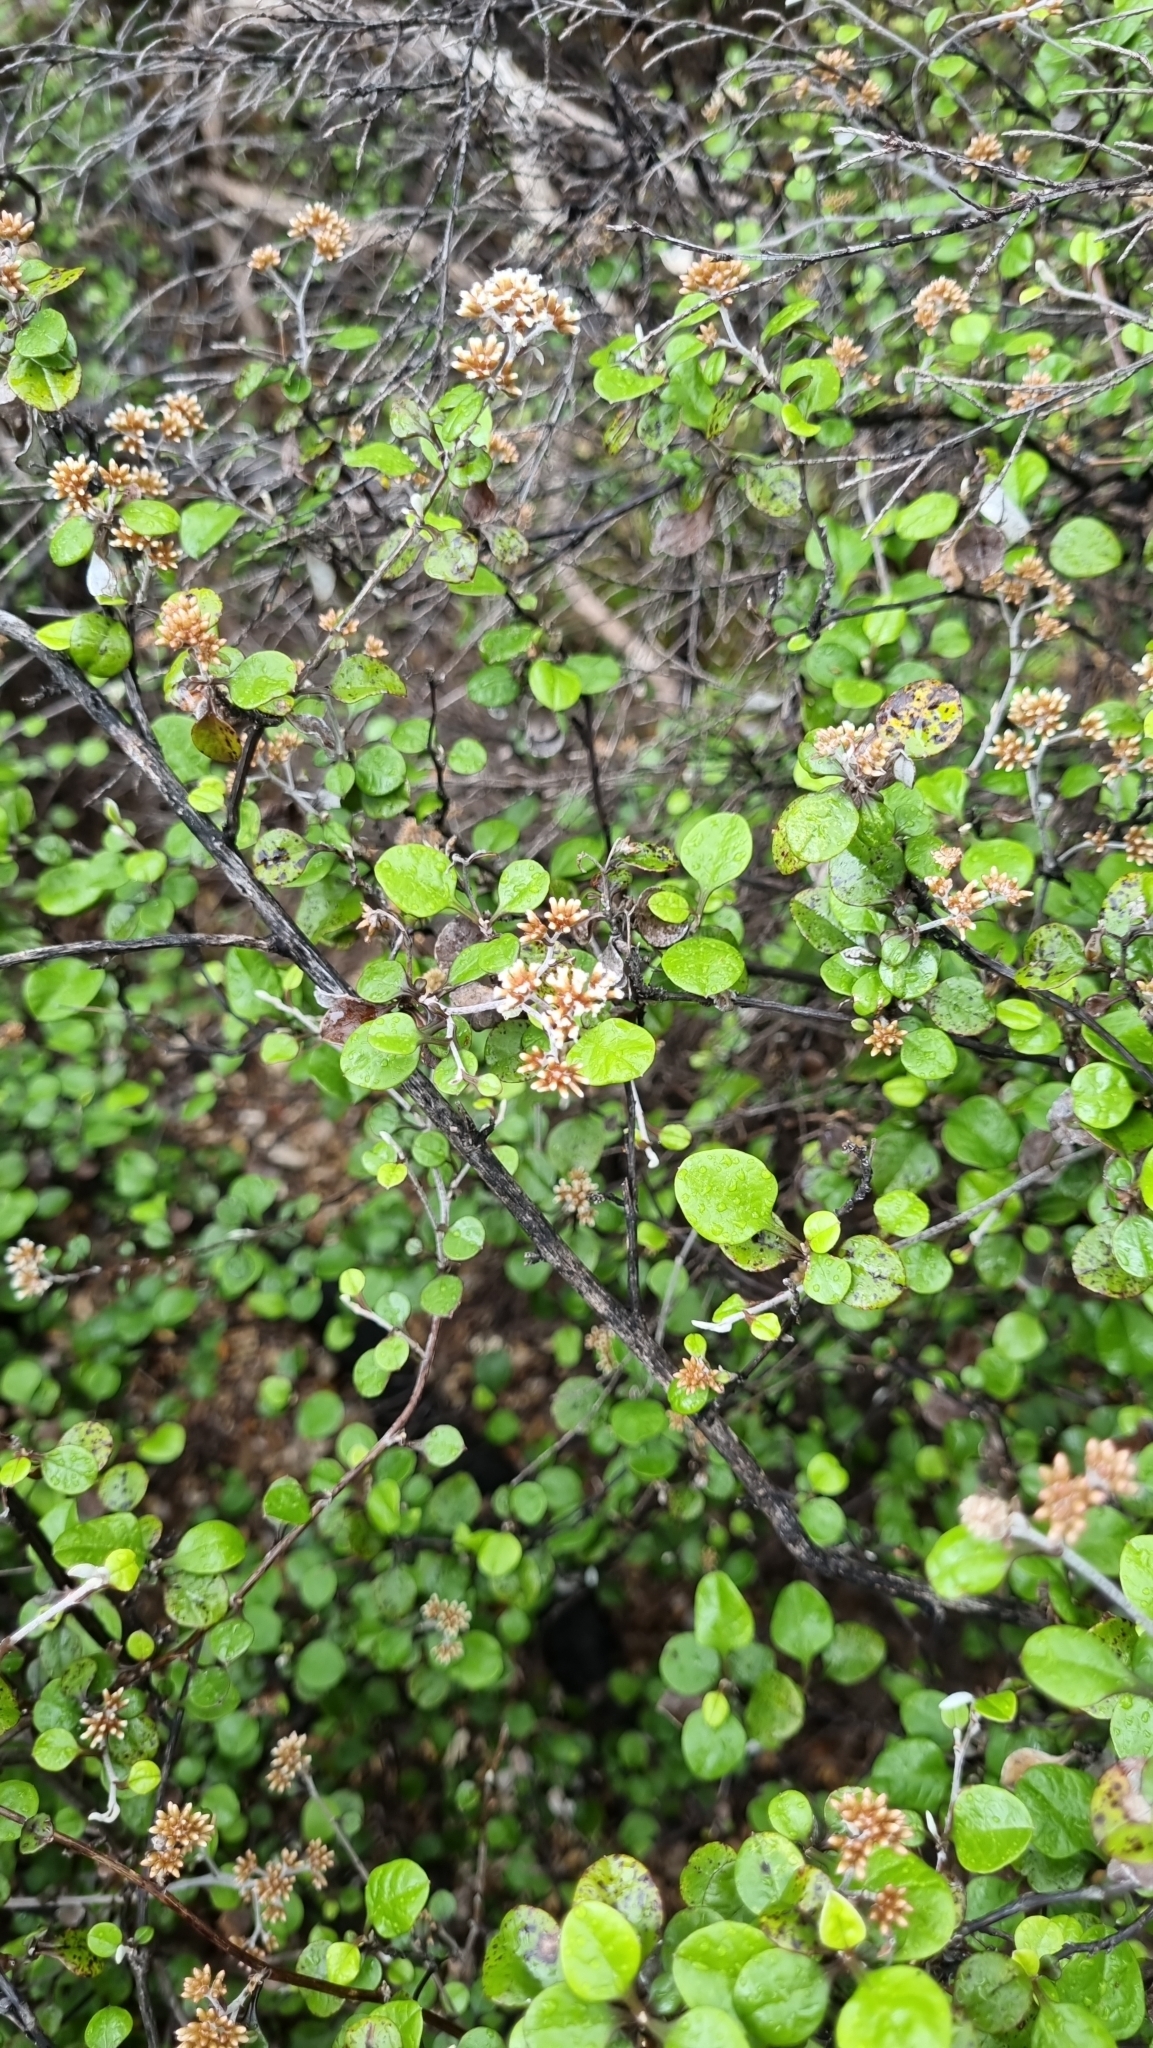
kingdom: Plantae
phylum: Tracheophyta
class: Magnoliopsida
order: Asterales
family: Asteraceae
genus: Ozothamnus
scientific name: Ozothamnus glomeratus
